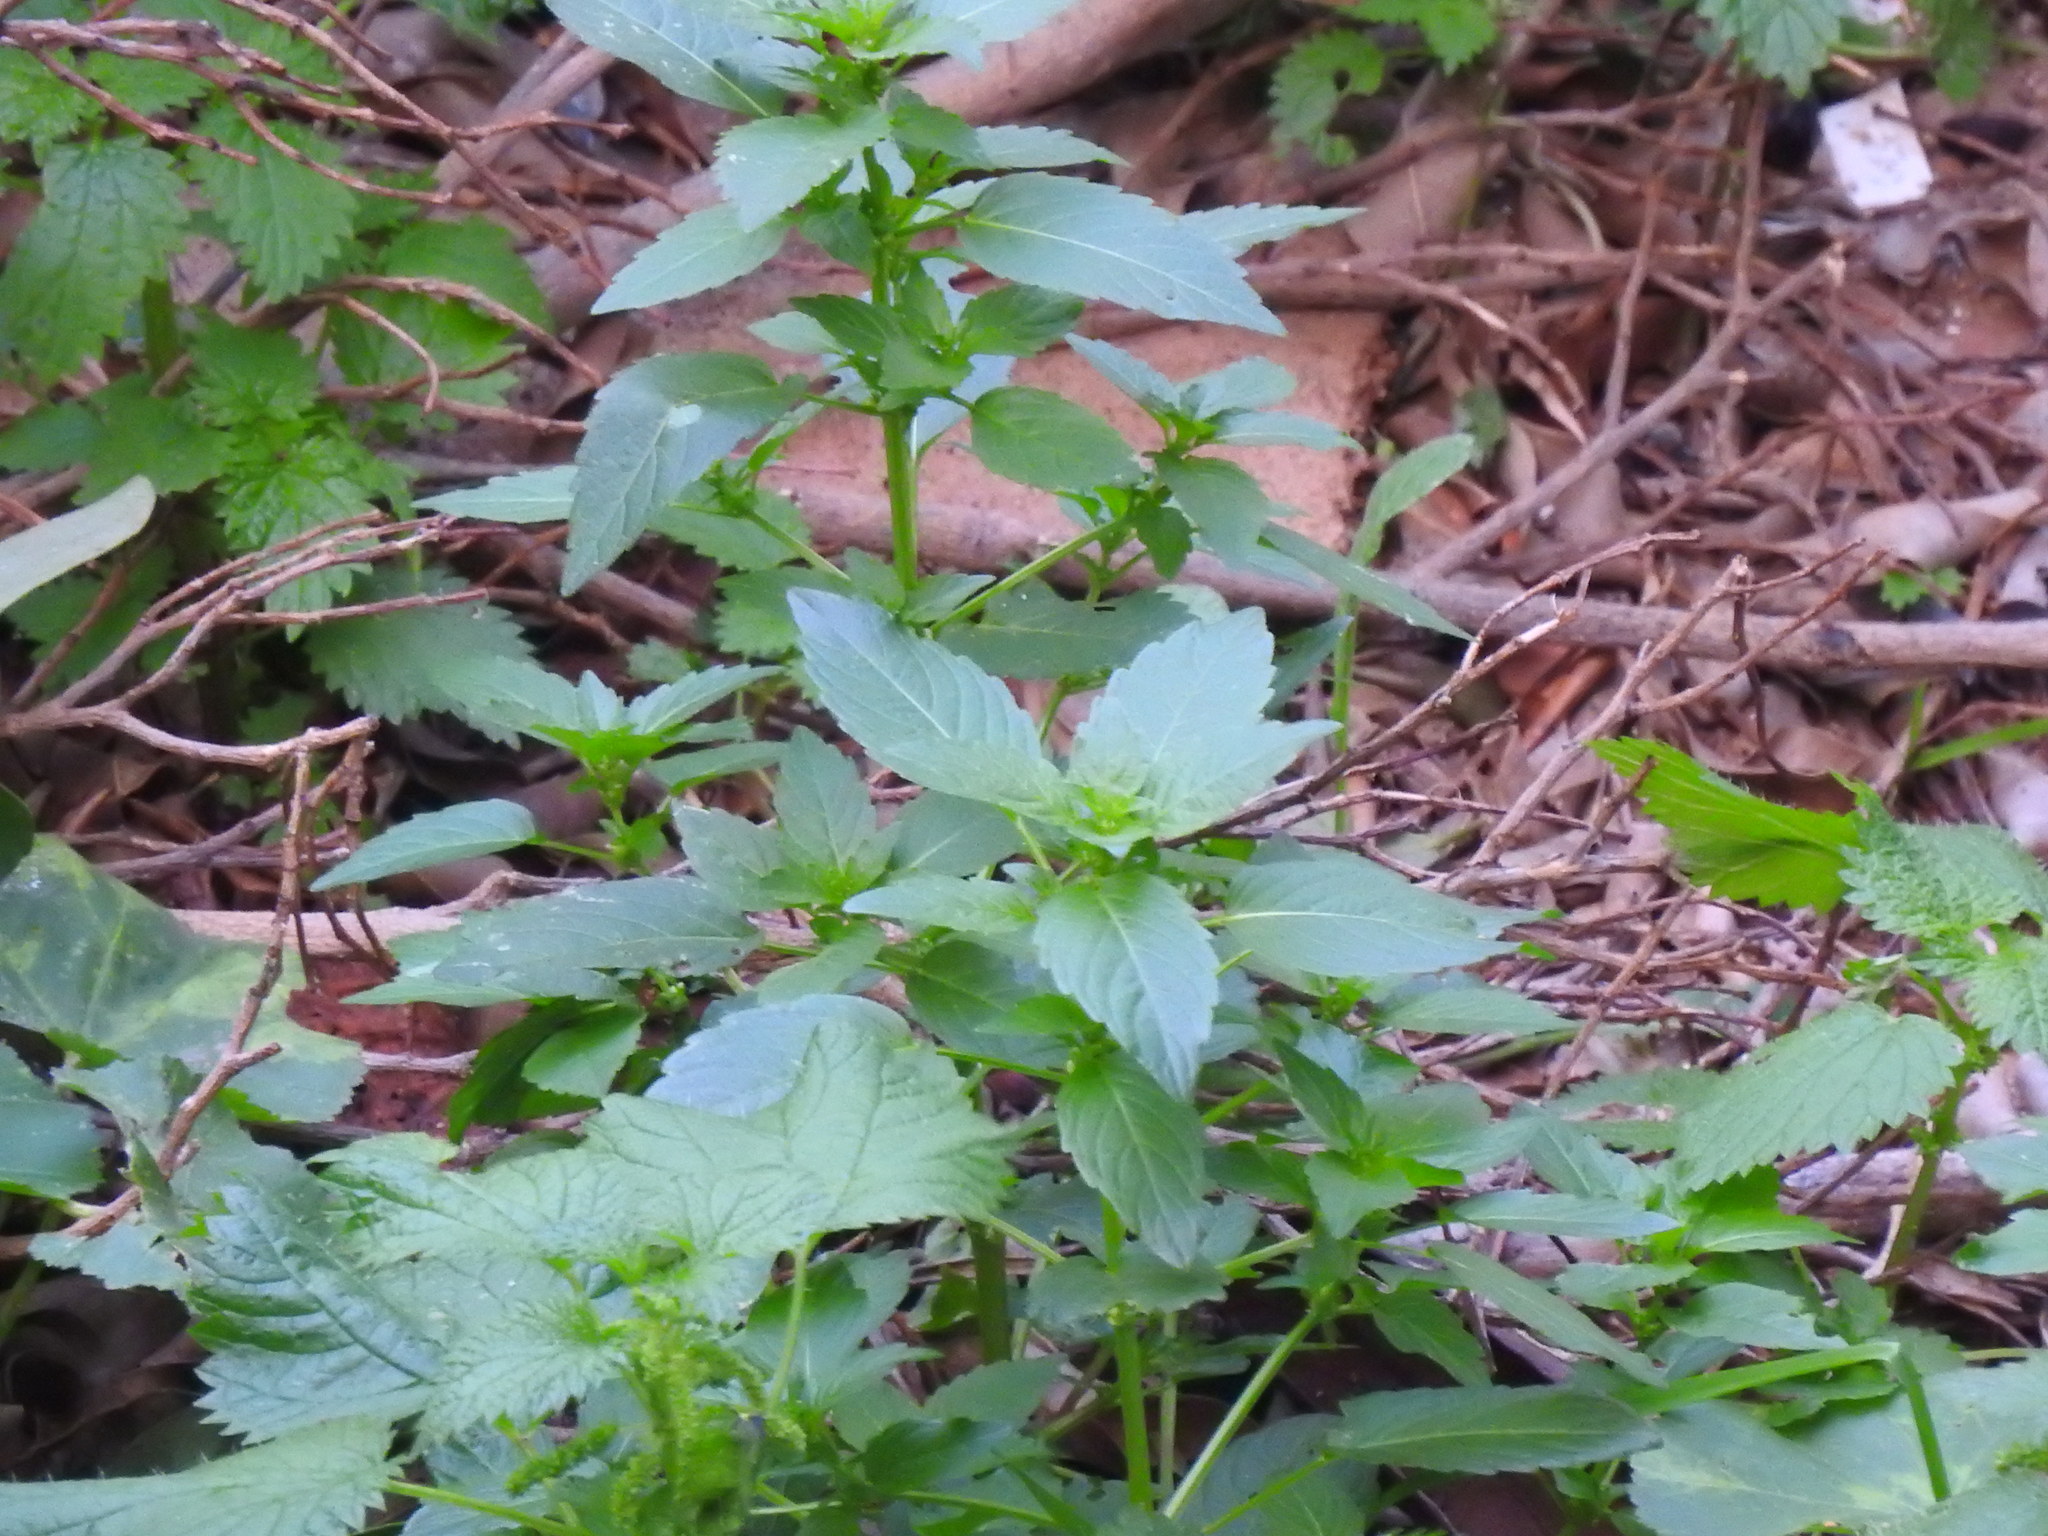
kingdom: Plantae
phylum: Tracheophyta
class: Magnoliopsida
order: Malpighiales
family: Euphorbiaceae
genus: Mercurialis
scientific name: Mercurialis annua
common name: Annual mercury
